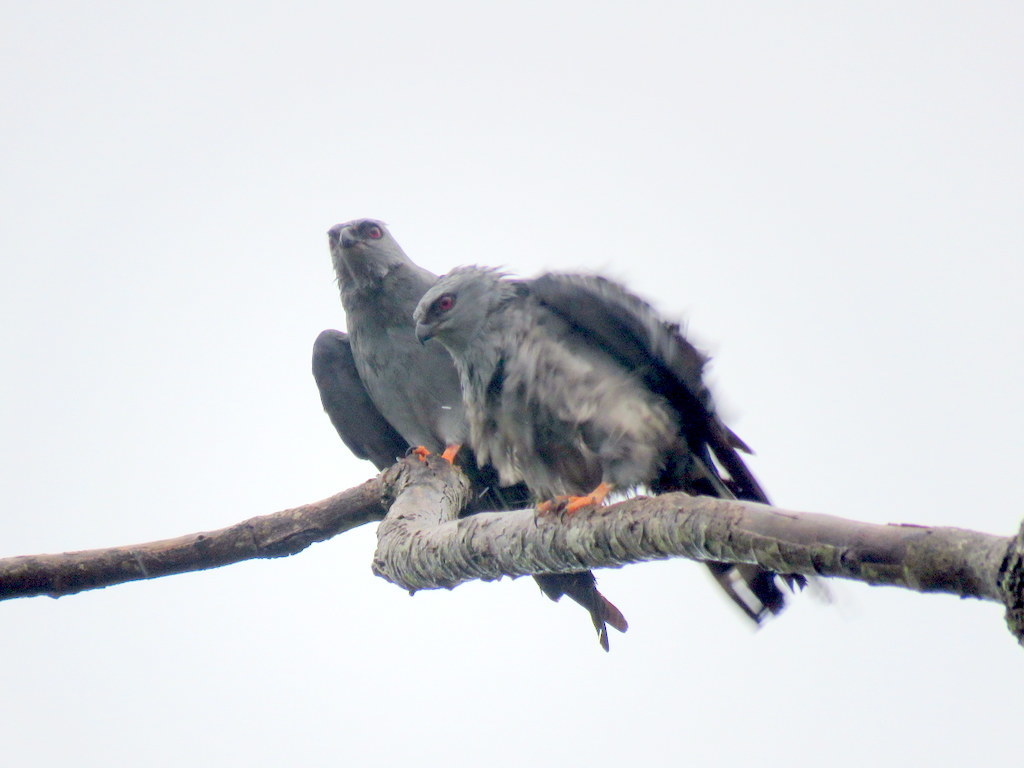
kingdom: Animalia
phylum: Chordata
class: Aves
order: Accipitriformes
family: Accipitridae
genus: Ictinia
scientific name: Ictinia plumbea
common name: Plumbeous kite
